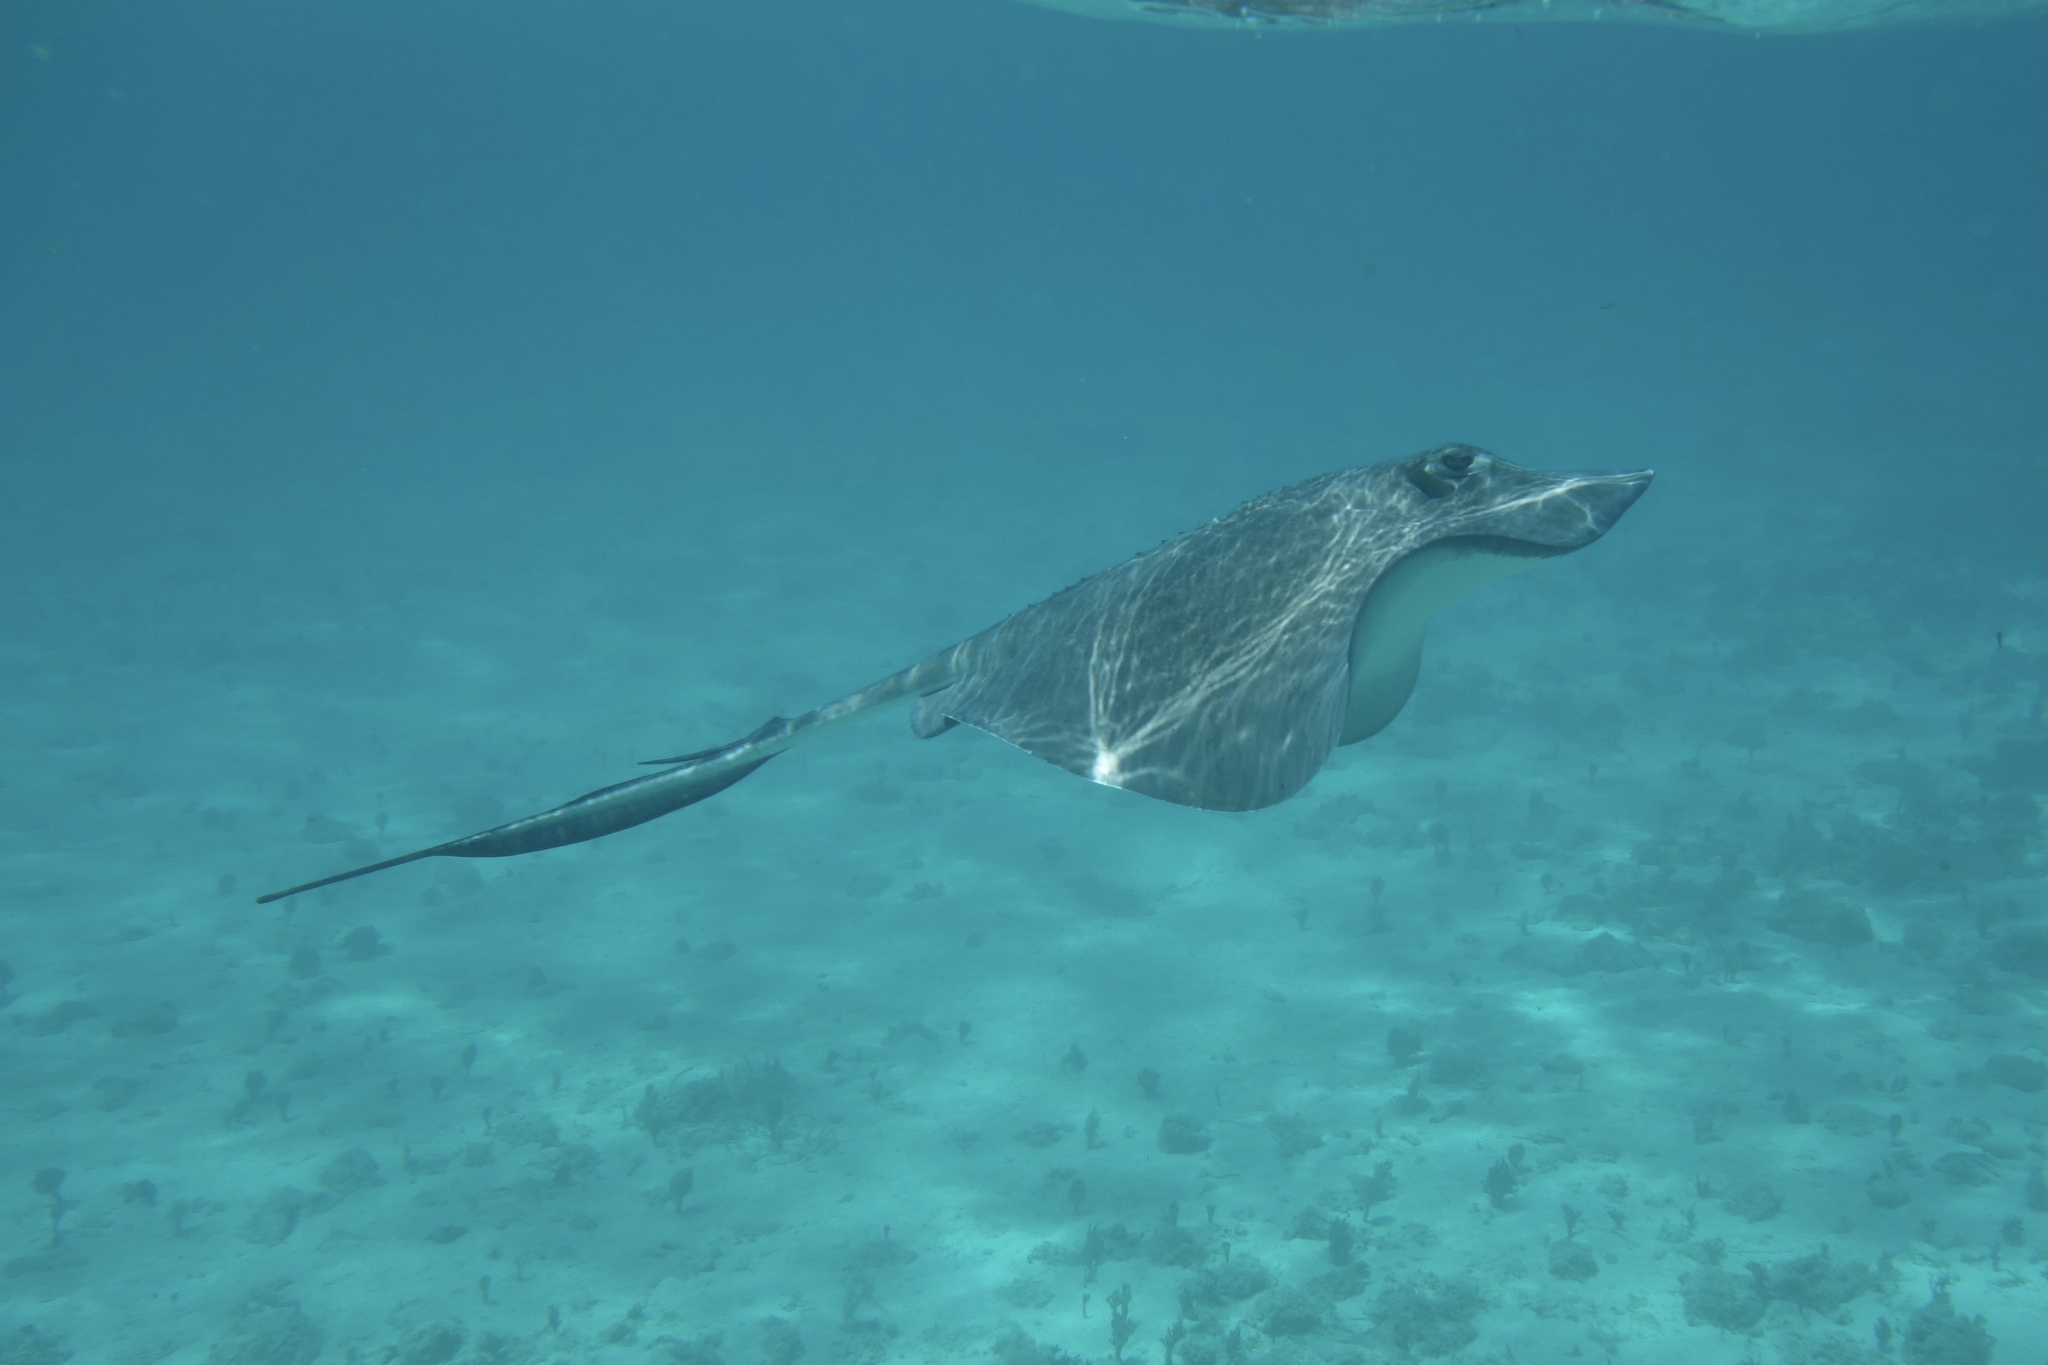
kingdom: Animalia
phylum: Chordata
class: Elasmobranchii
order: Myliobatiformes
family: Dasyatidae
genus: Hypanus
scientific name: Hypanus americanus
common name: Southern stingray
